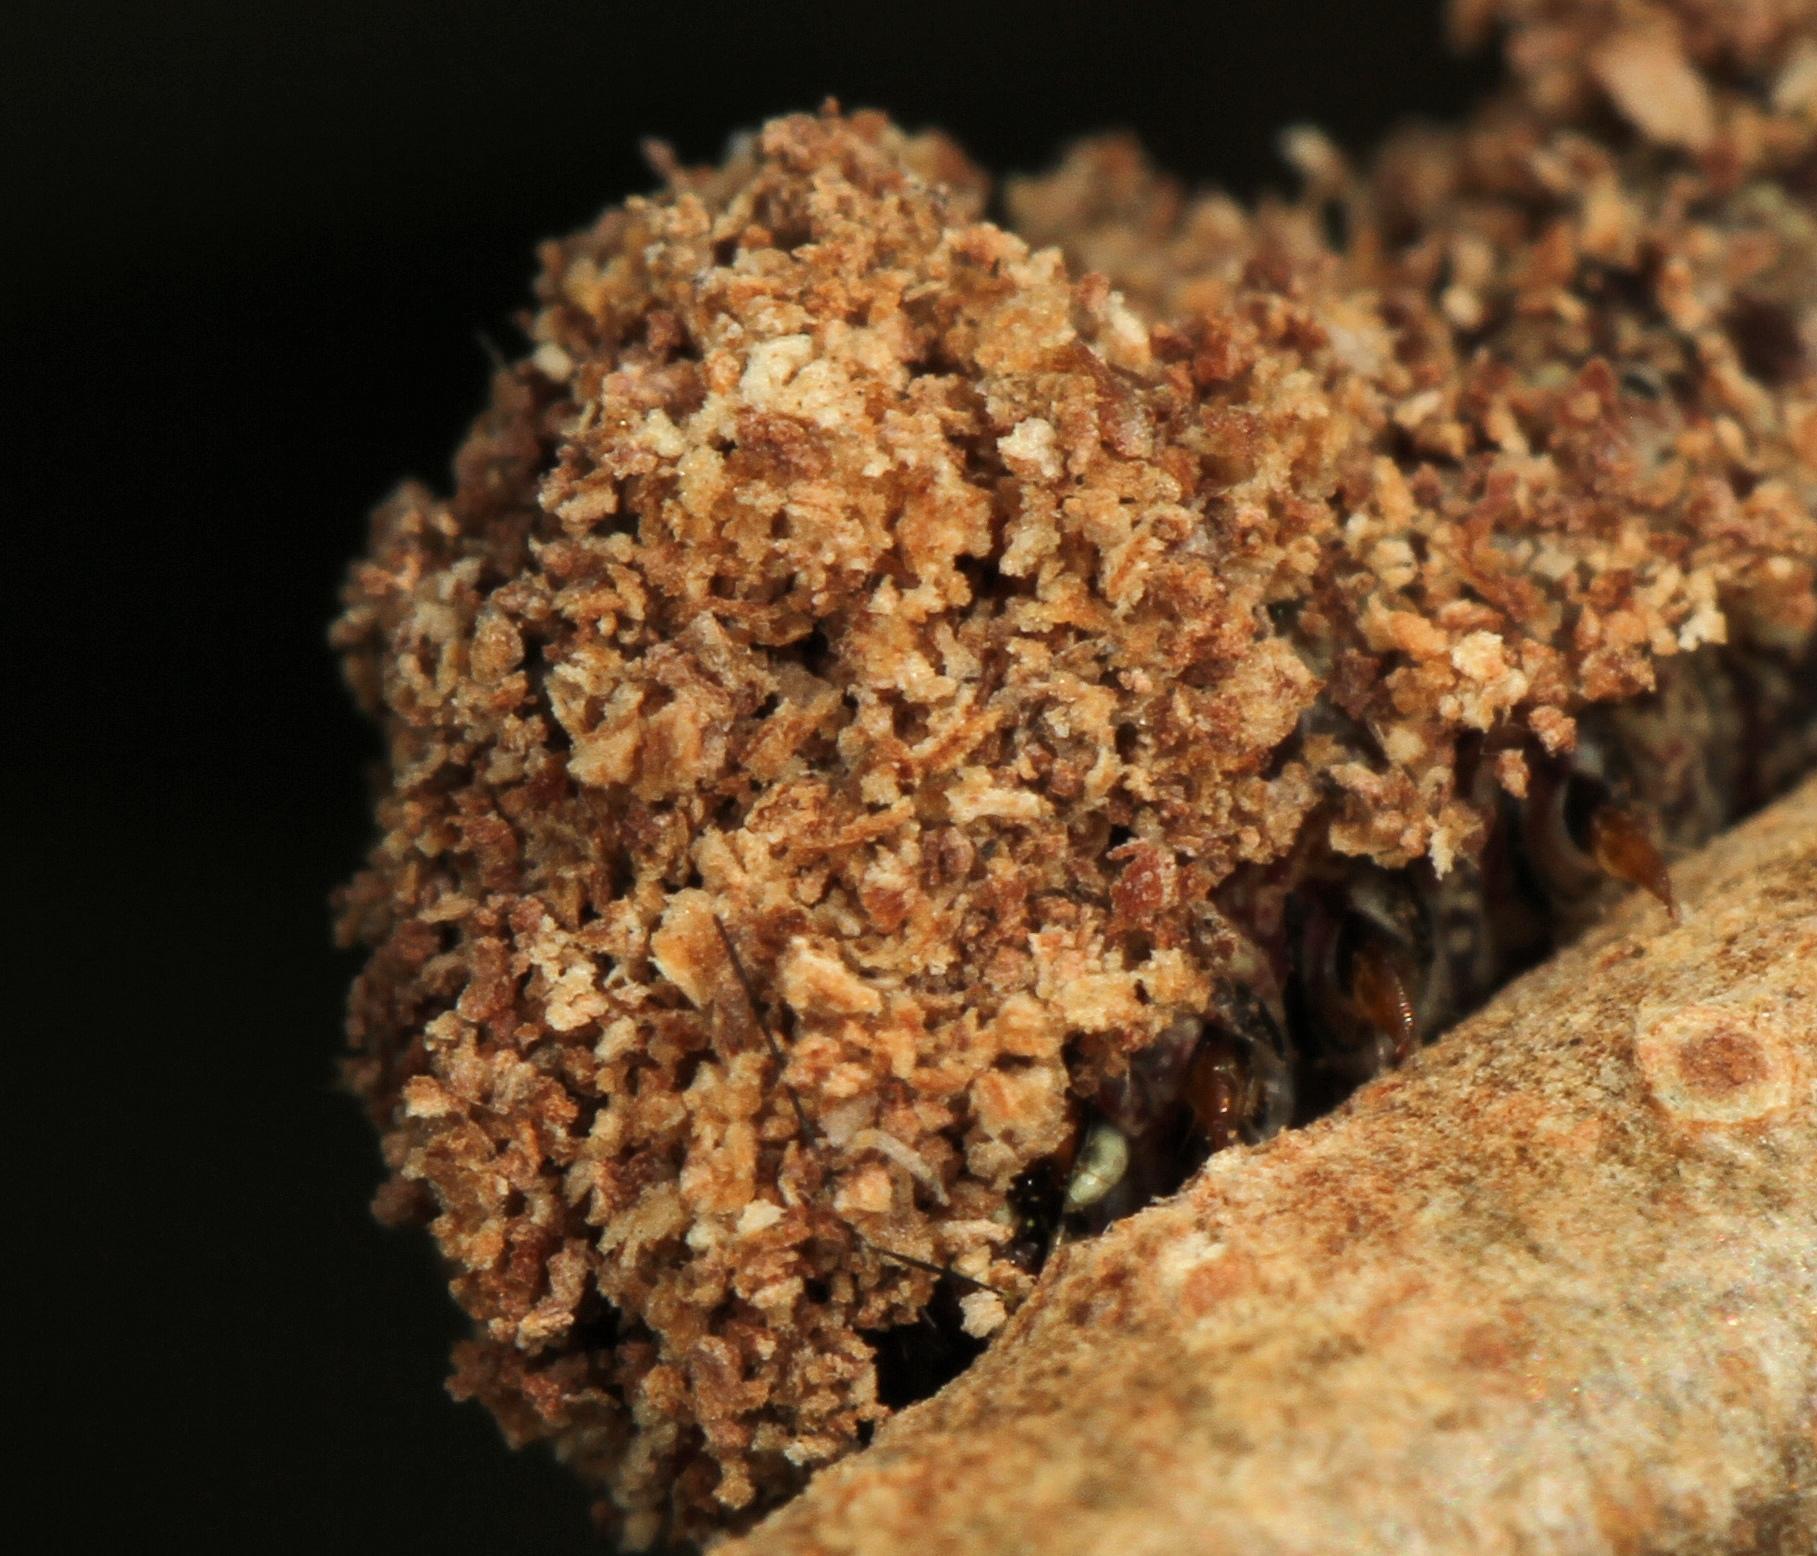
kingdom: Animalia
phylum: Arthropoda
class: Insecta
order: Lepidoptera
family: Euteliidae
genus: Penicillaria
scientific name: Penicillaria ethiopica
